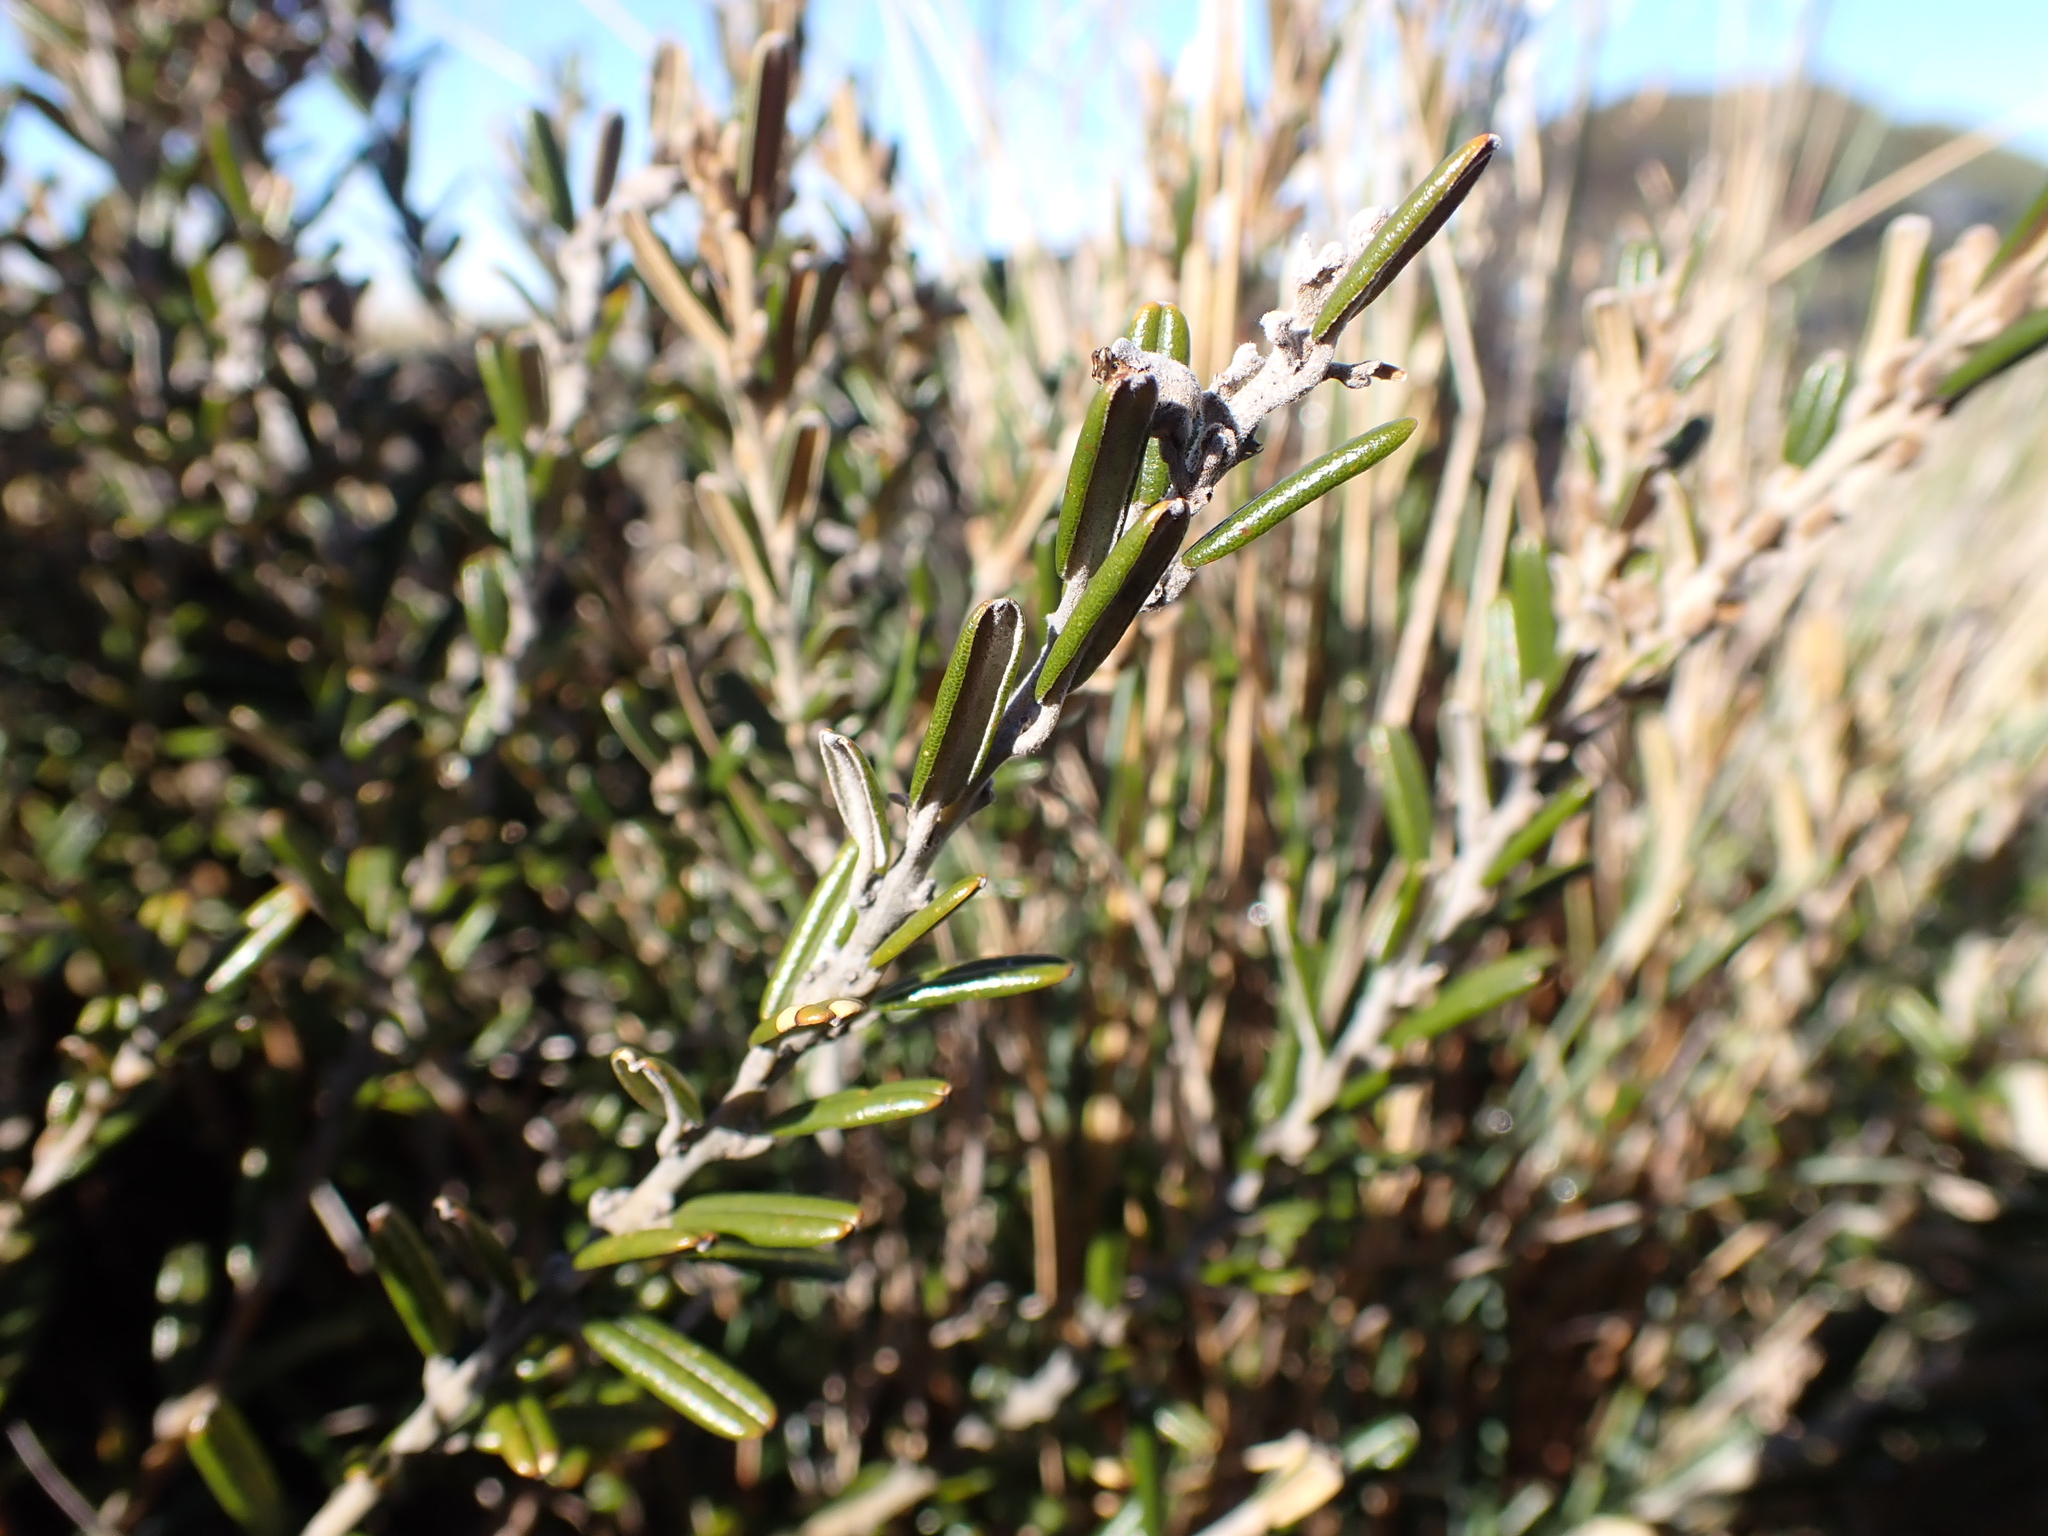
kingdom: Plantae
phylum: Tracheophyta
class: Magnoliopsida
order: Fabales
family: Fabaceae
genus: Hovea
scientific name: Hovea montana
